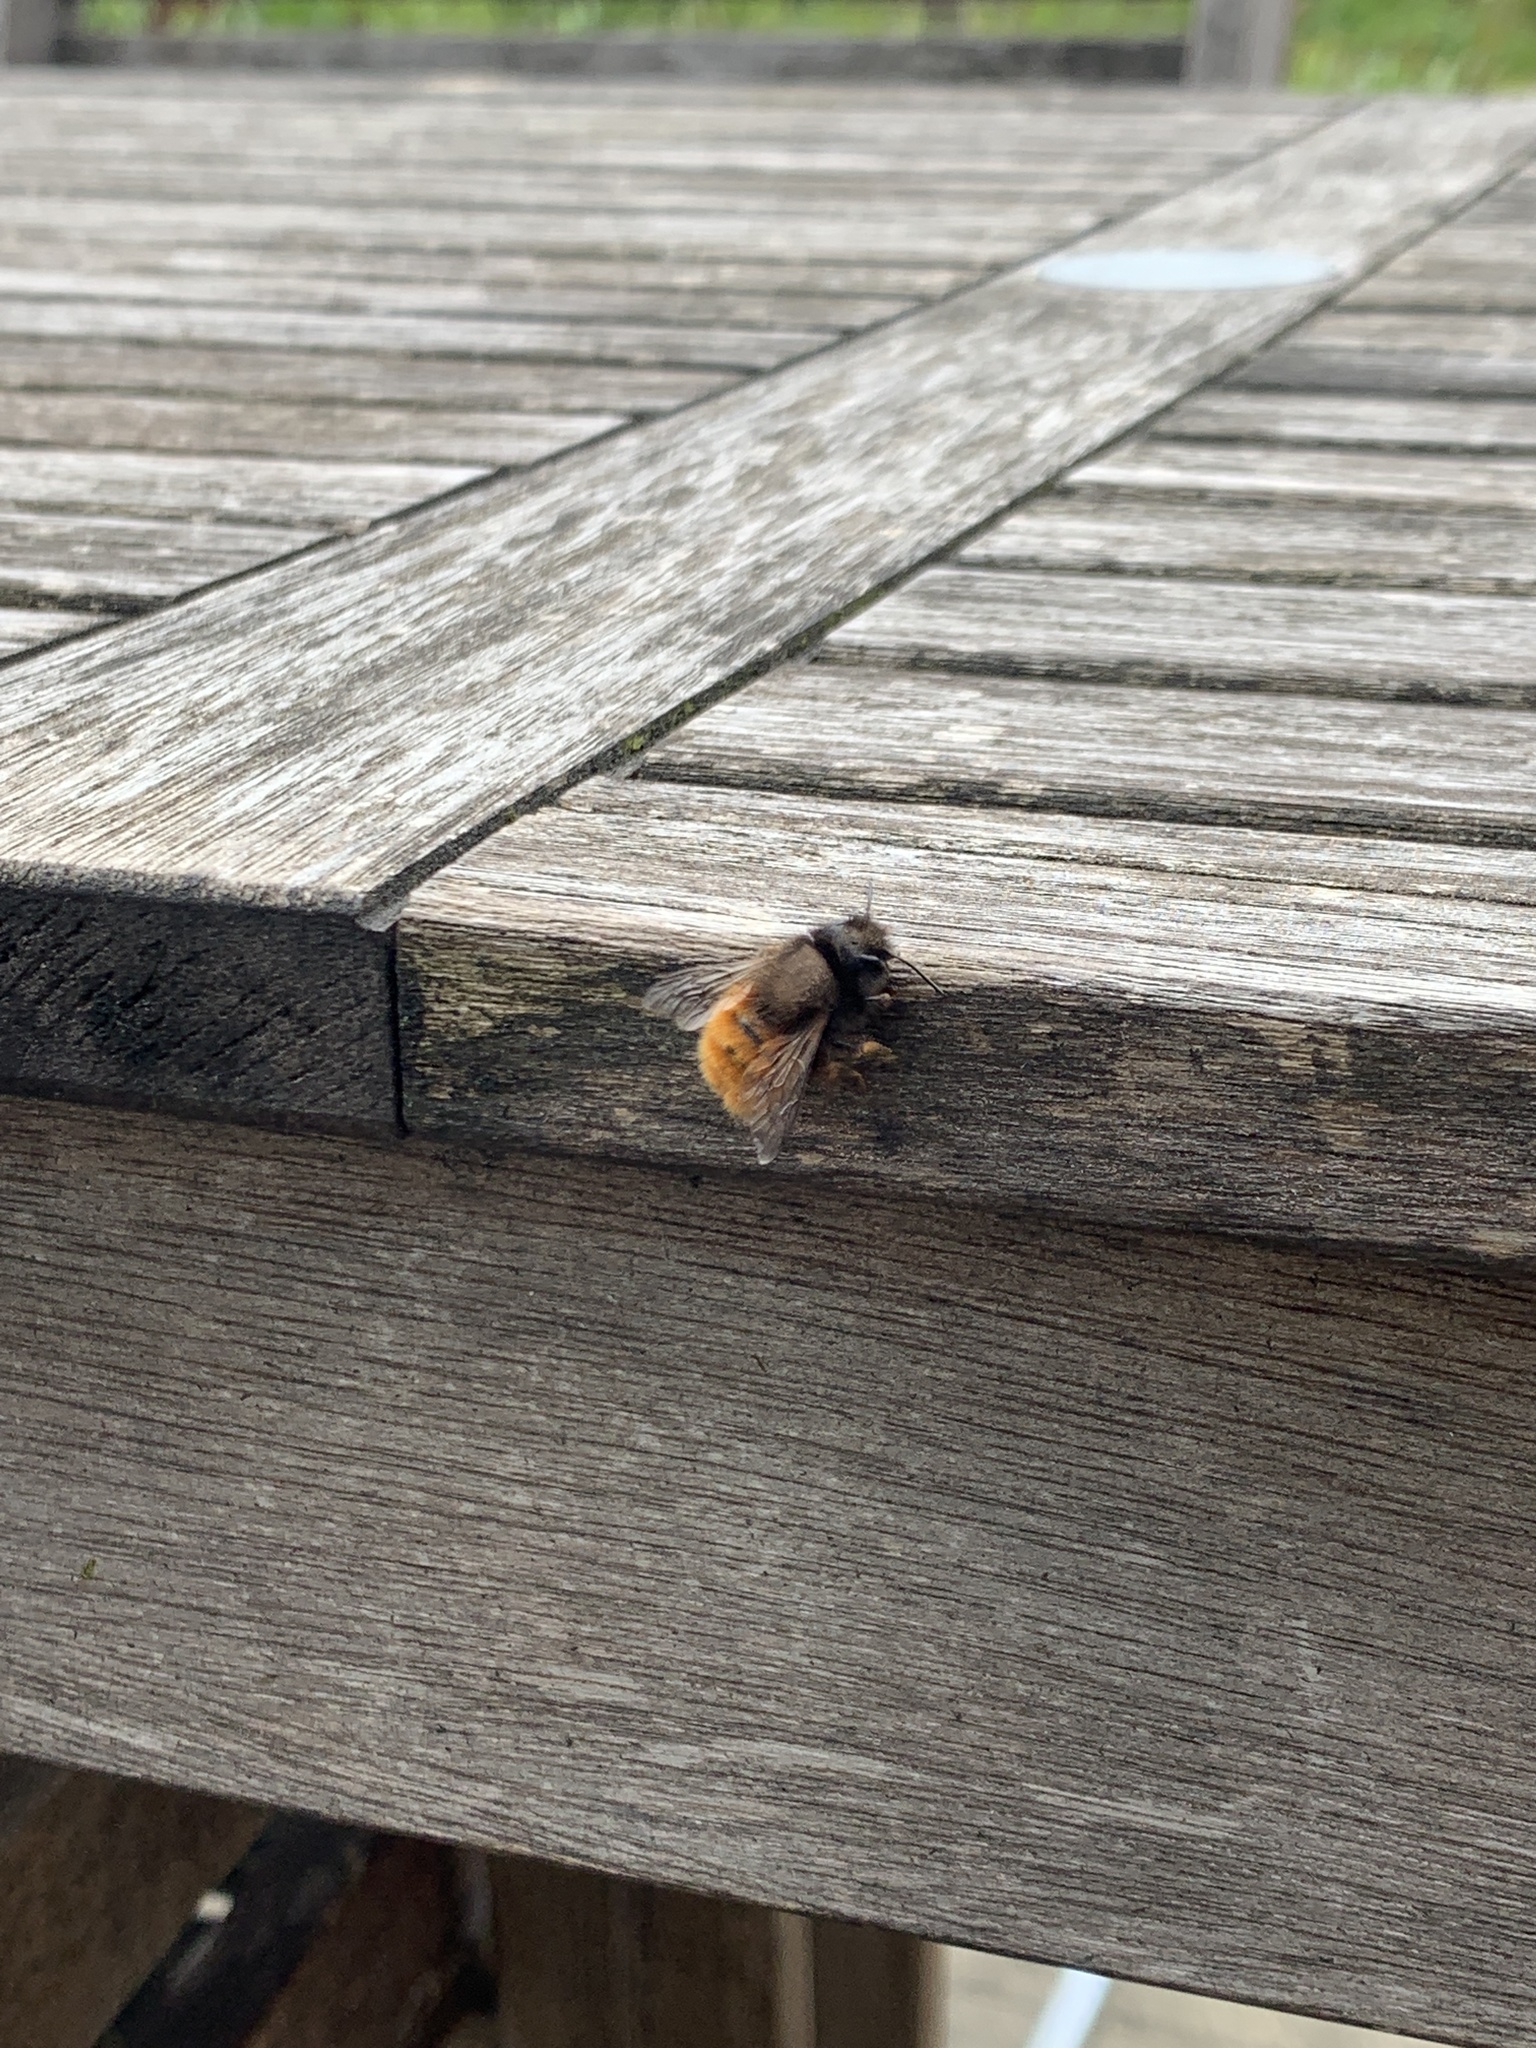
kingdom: Animalia
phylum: Arthropoda
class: Insecta
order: Hymenoptera
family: Megachilidae
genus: Osmia
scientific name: Osmia cornuta
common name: Mason bee
